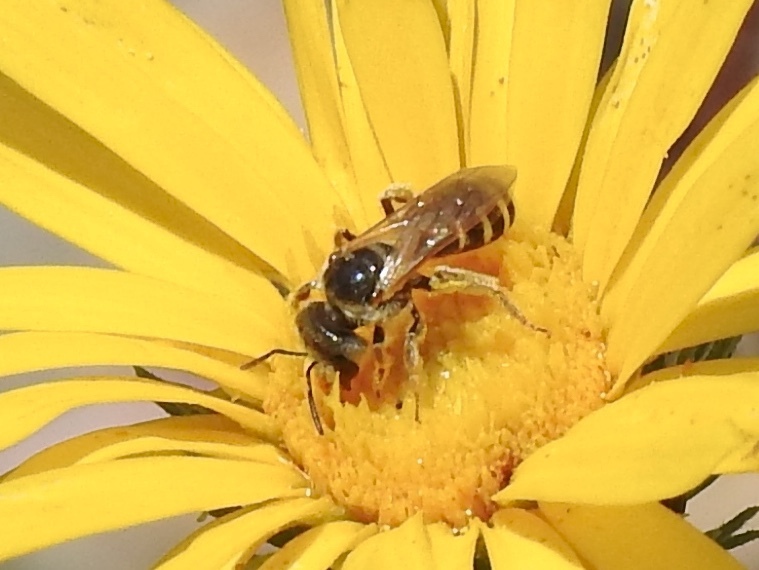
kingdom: Animalia
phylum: Arthropoda
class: Insecta
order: Hymenoptera
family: Halictidae
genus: Halictus
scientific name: Halictus ligatus
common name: Ligated furrow bee
